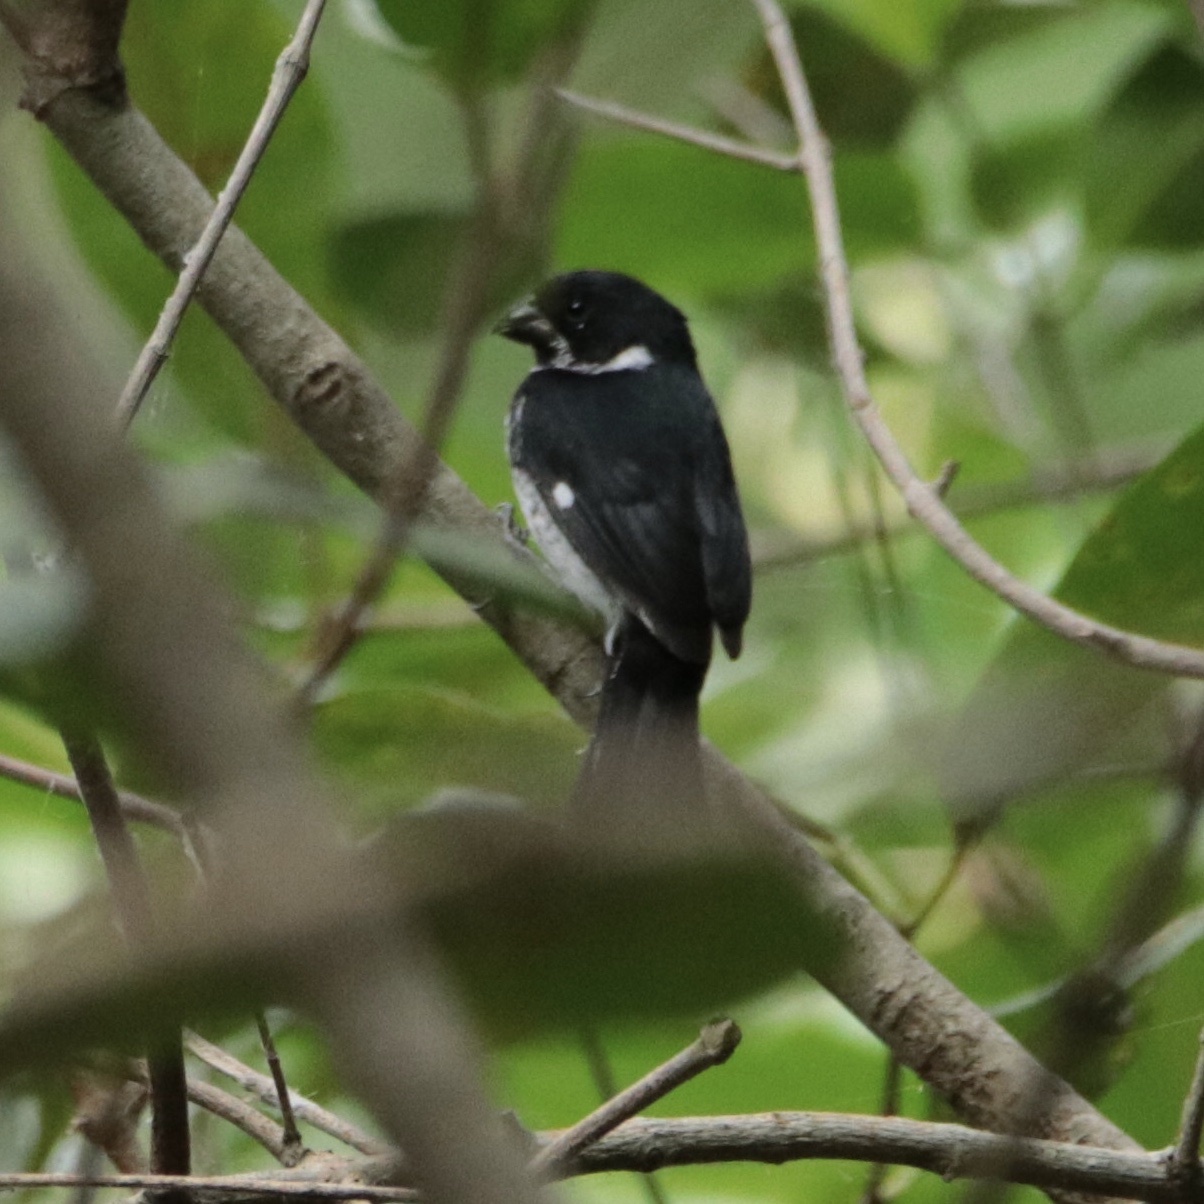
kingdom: Animalia
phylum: Chordata
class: Aves
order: Passeriformes
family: Thraupidae
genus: Sporophila
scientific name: Sporophila corvina
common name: Variable seedeater
